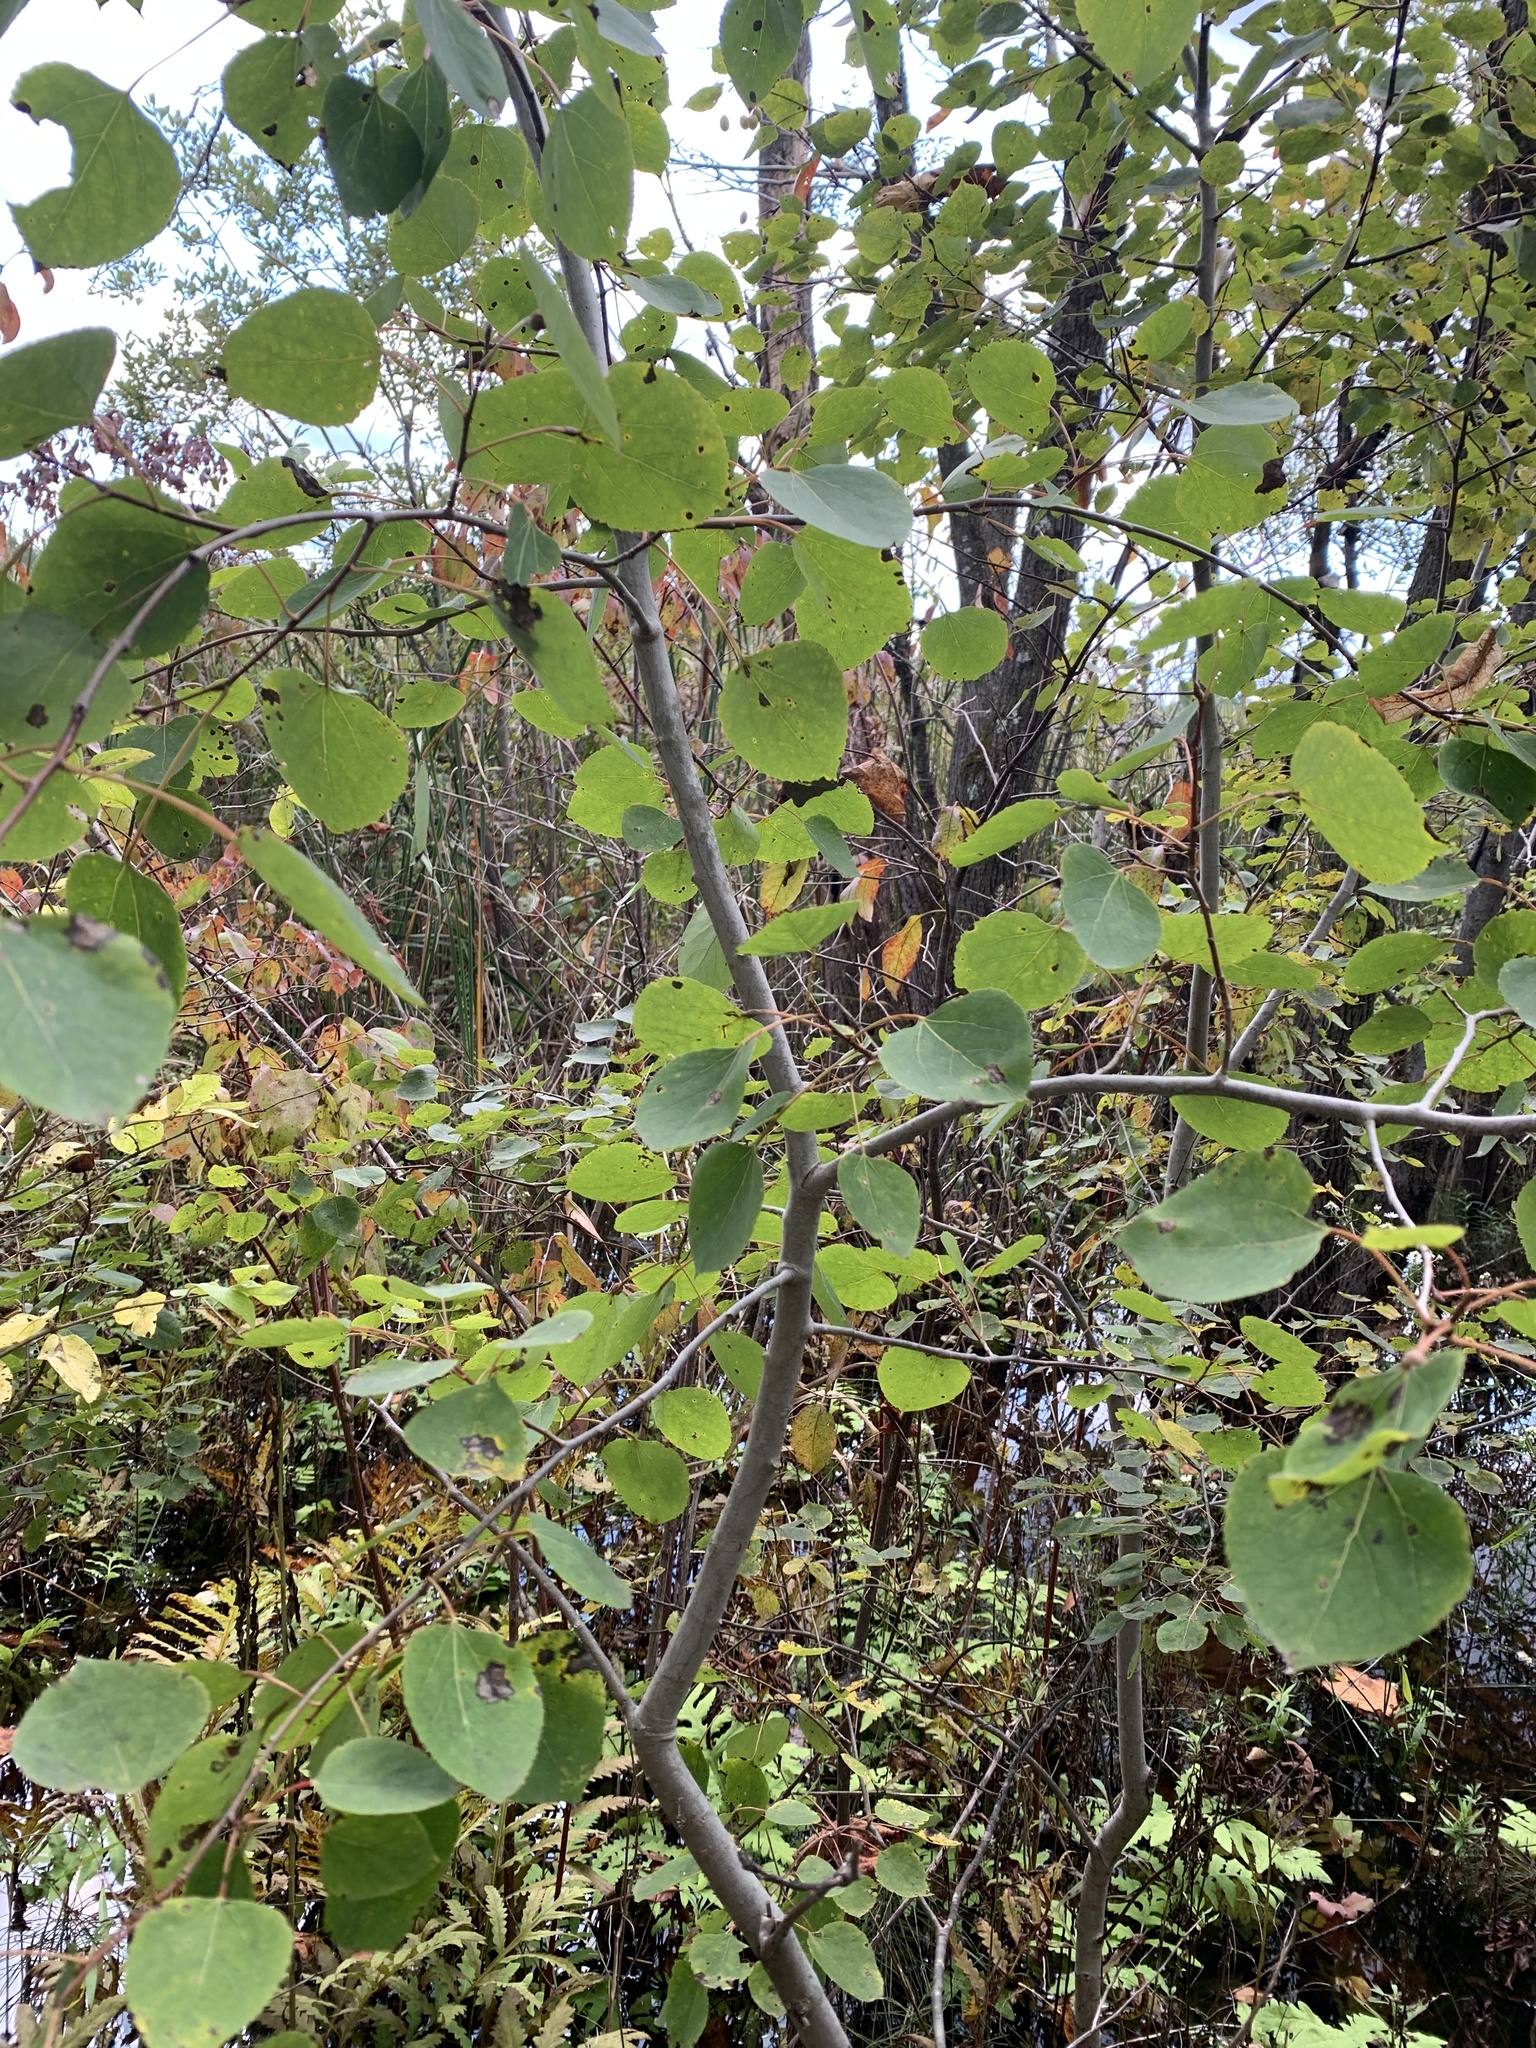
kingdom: Plantae
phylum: Tracheophyta
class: Magnoliopsida
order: Malpighiales
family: Salicaceae
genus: Populus
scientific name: Populus tremuloides
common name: Quaking aspen
